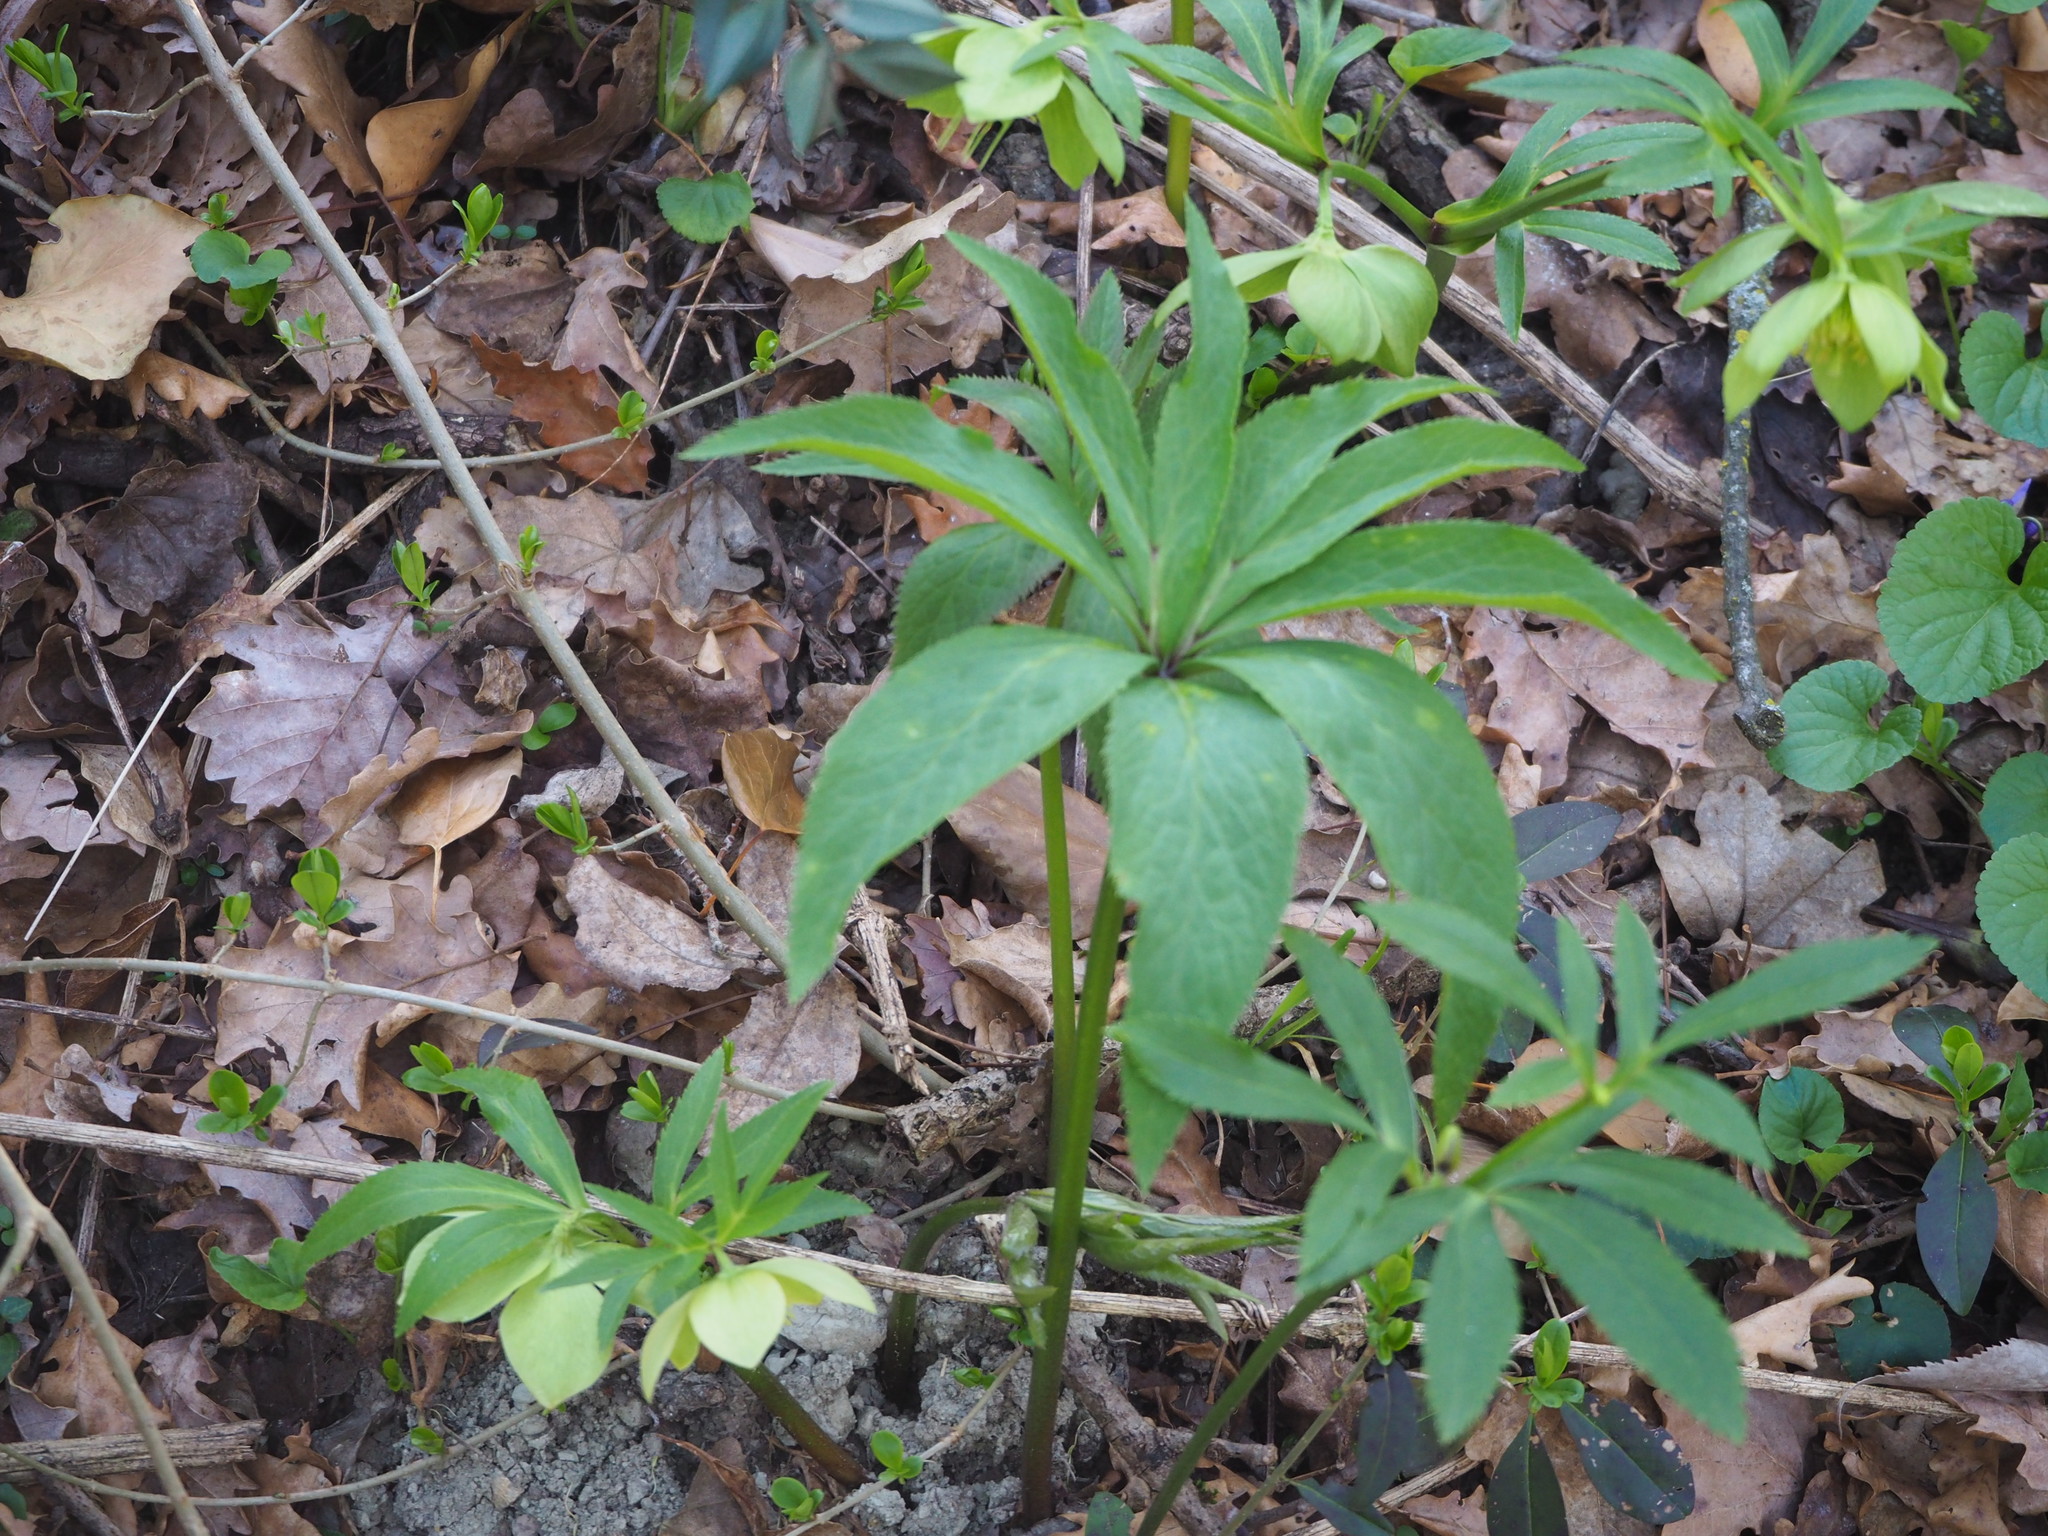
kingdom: Plantae
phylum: Tracheophyta
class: Magnoliopsida
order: Ranunculales
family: Ranunculaceae
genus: Helleborus
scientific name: Helleborus viridis
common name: Green hellebore
